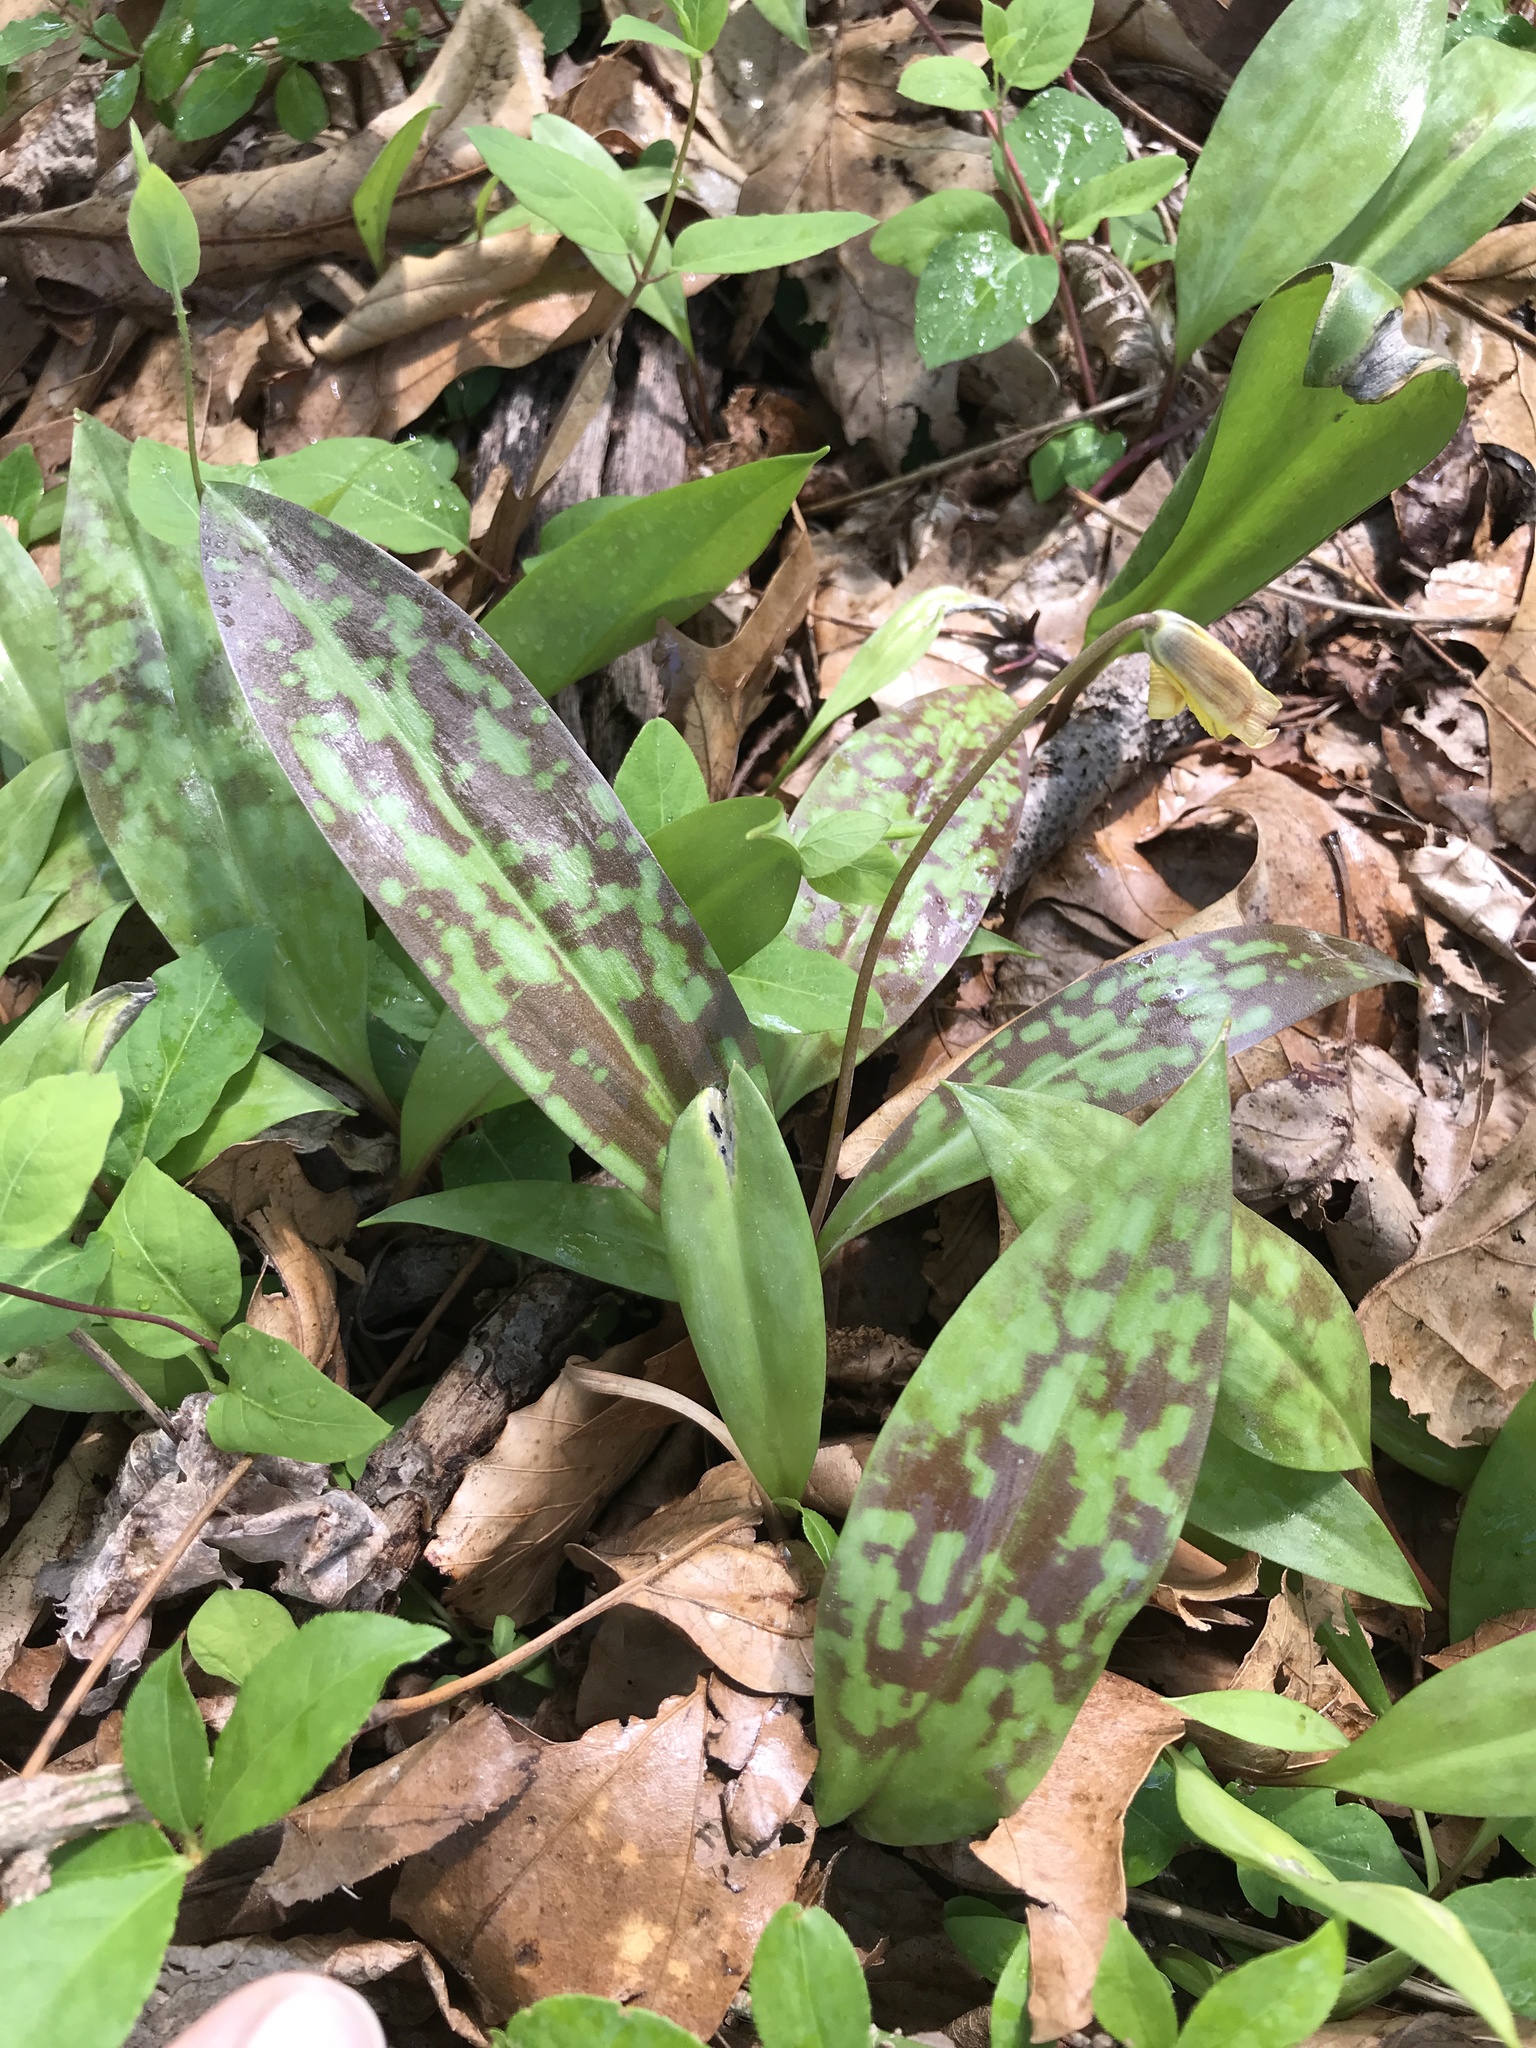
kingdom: Plantae
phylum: Tracheophyta
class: Liliopsida
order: Liliales
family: Liliaceae
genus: Erythronium
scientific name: Erythronium americanum
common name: Yellow adder's-tongue
